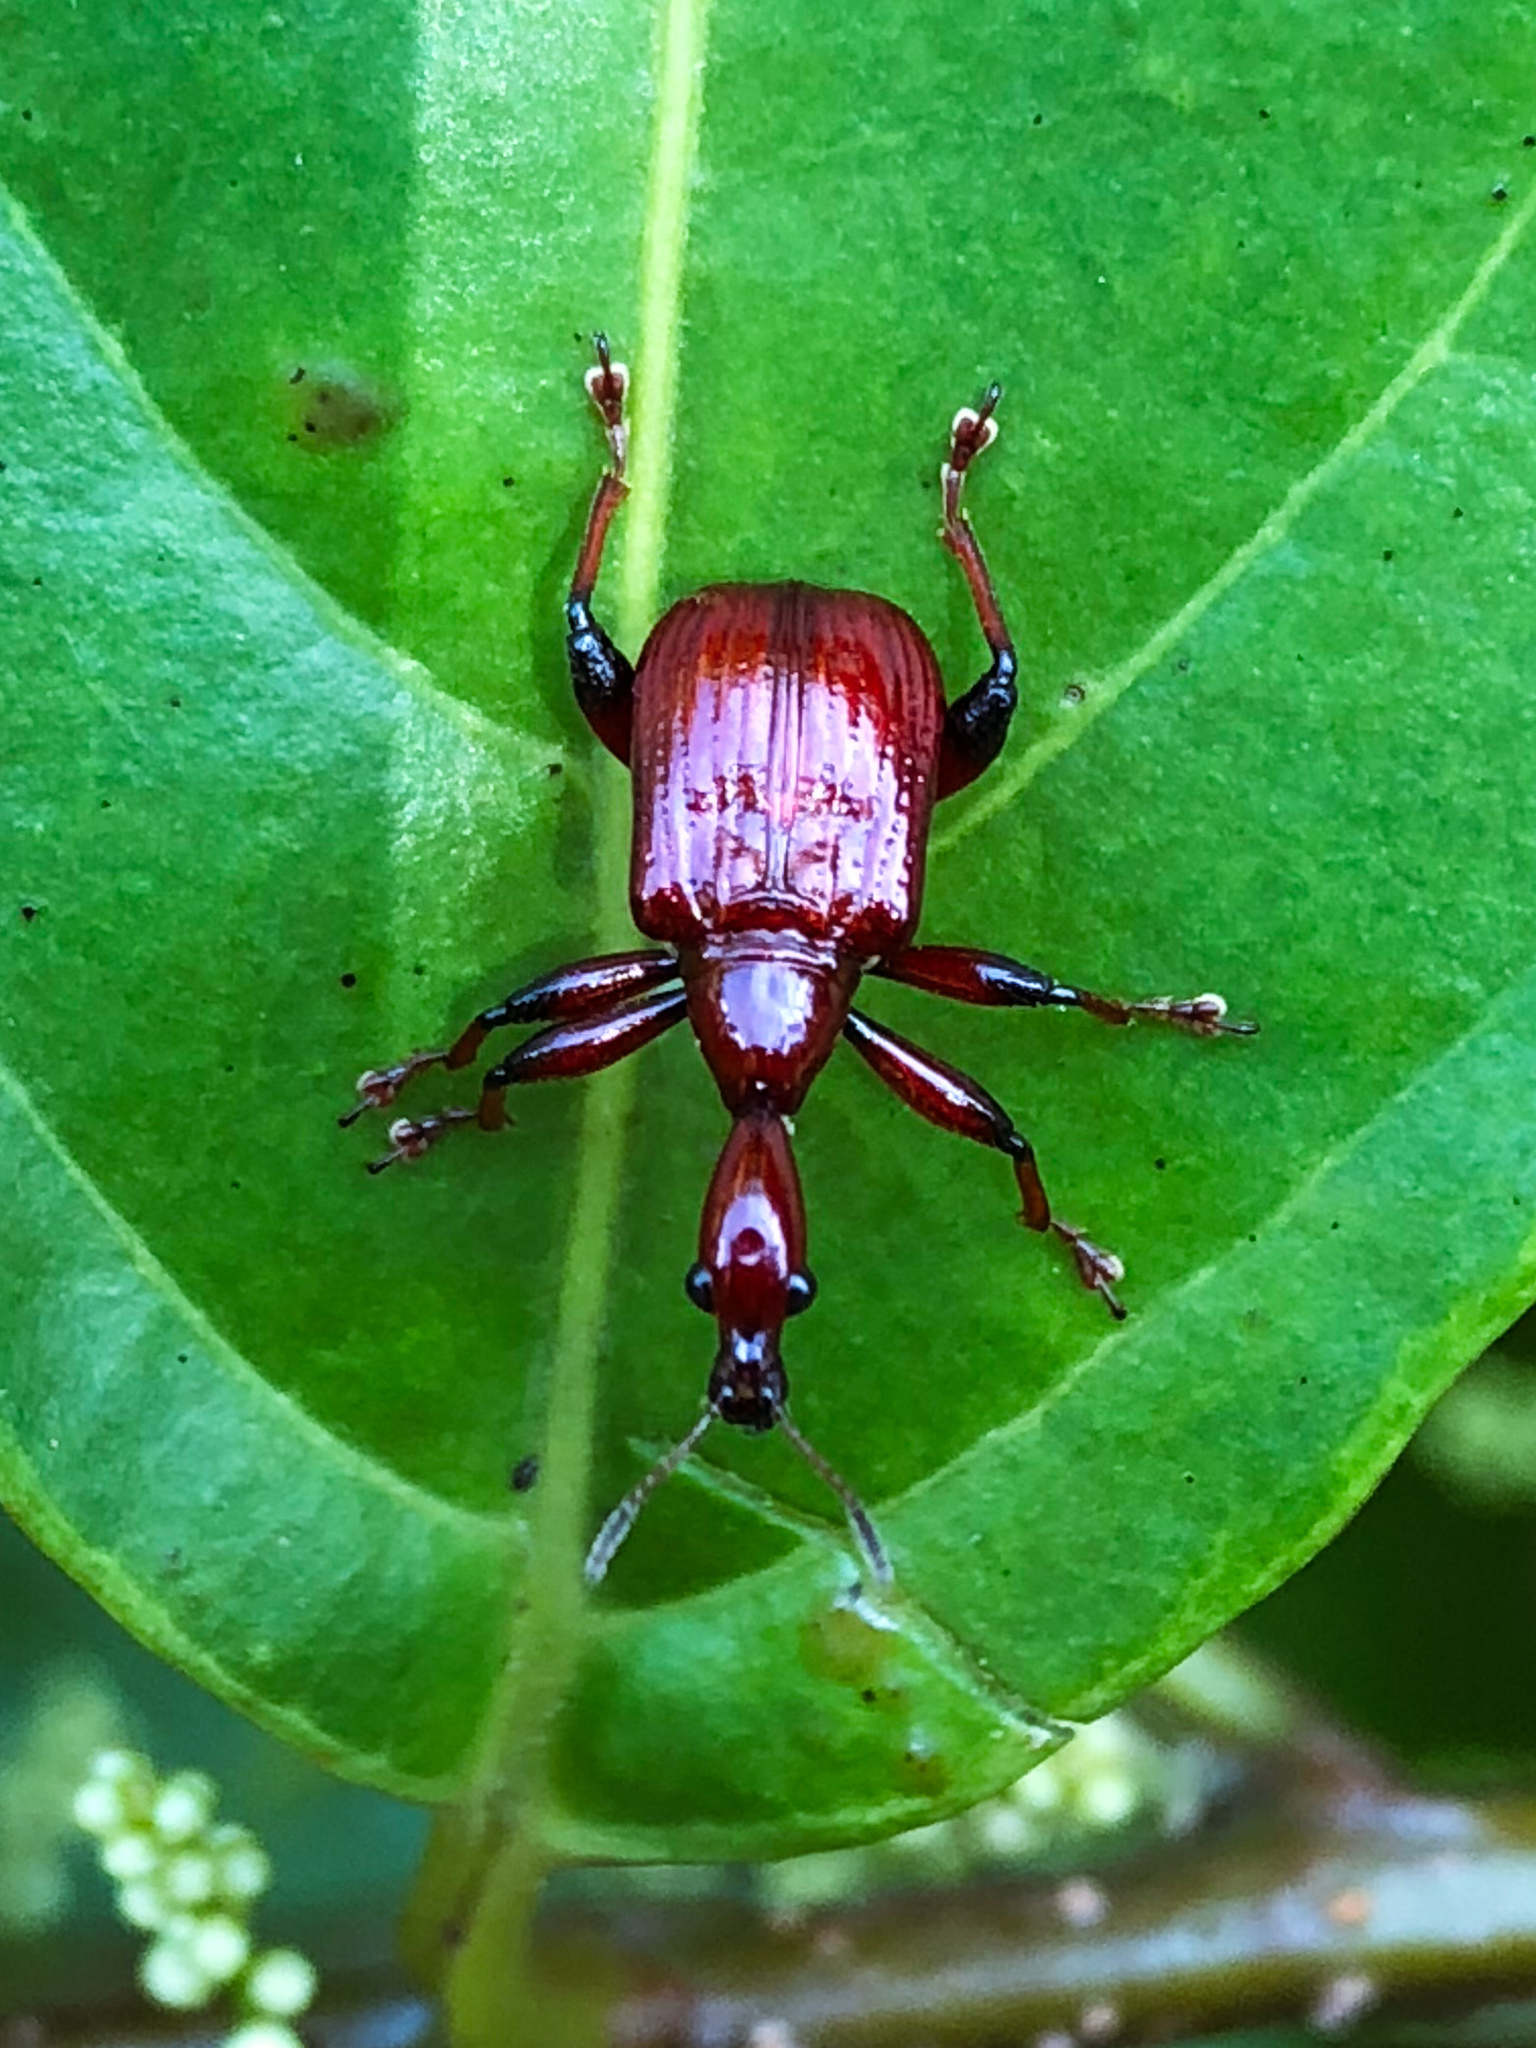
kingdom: Animalia
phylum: Arthropoda
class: Insecta
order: Coleoptera
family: Attelabidae
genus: Paratrachelophorus
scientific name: Paratrachelophorus nodicornis
